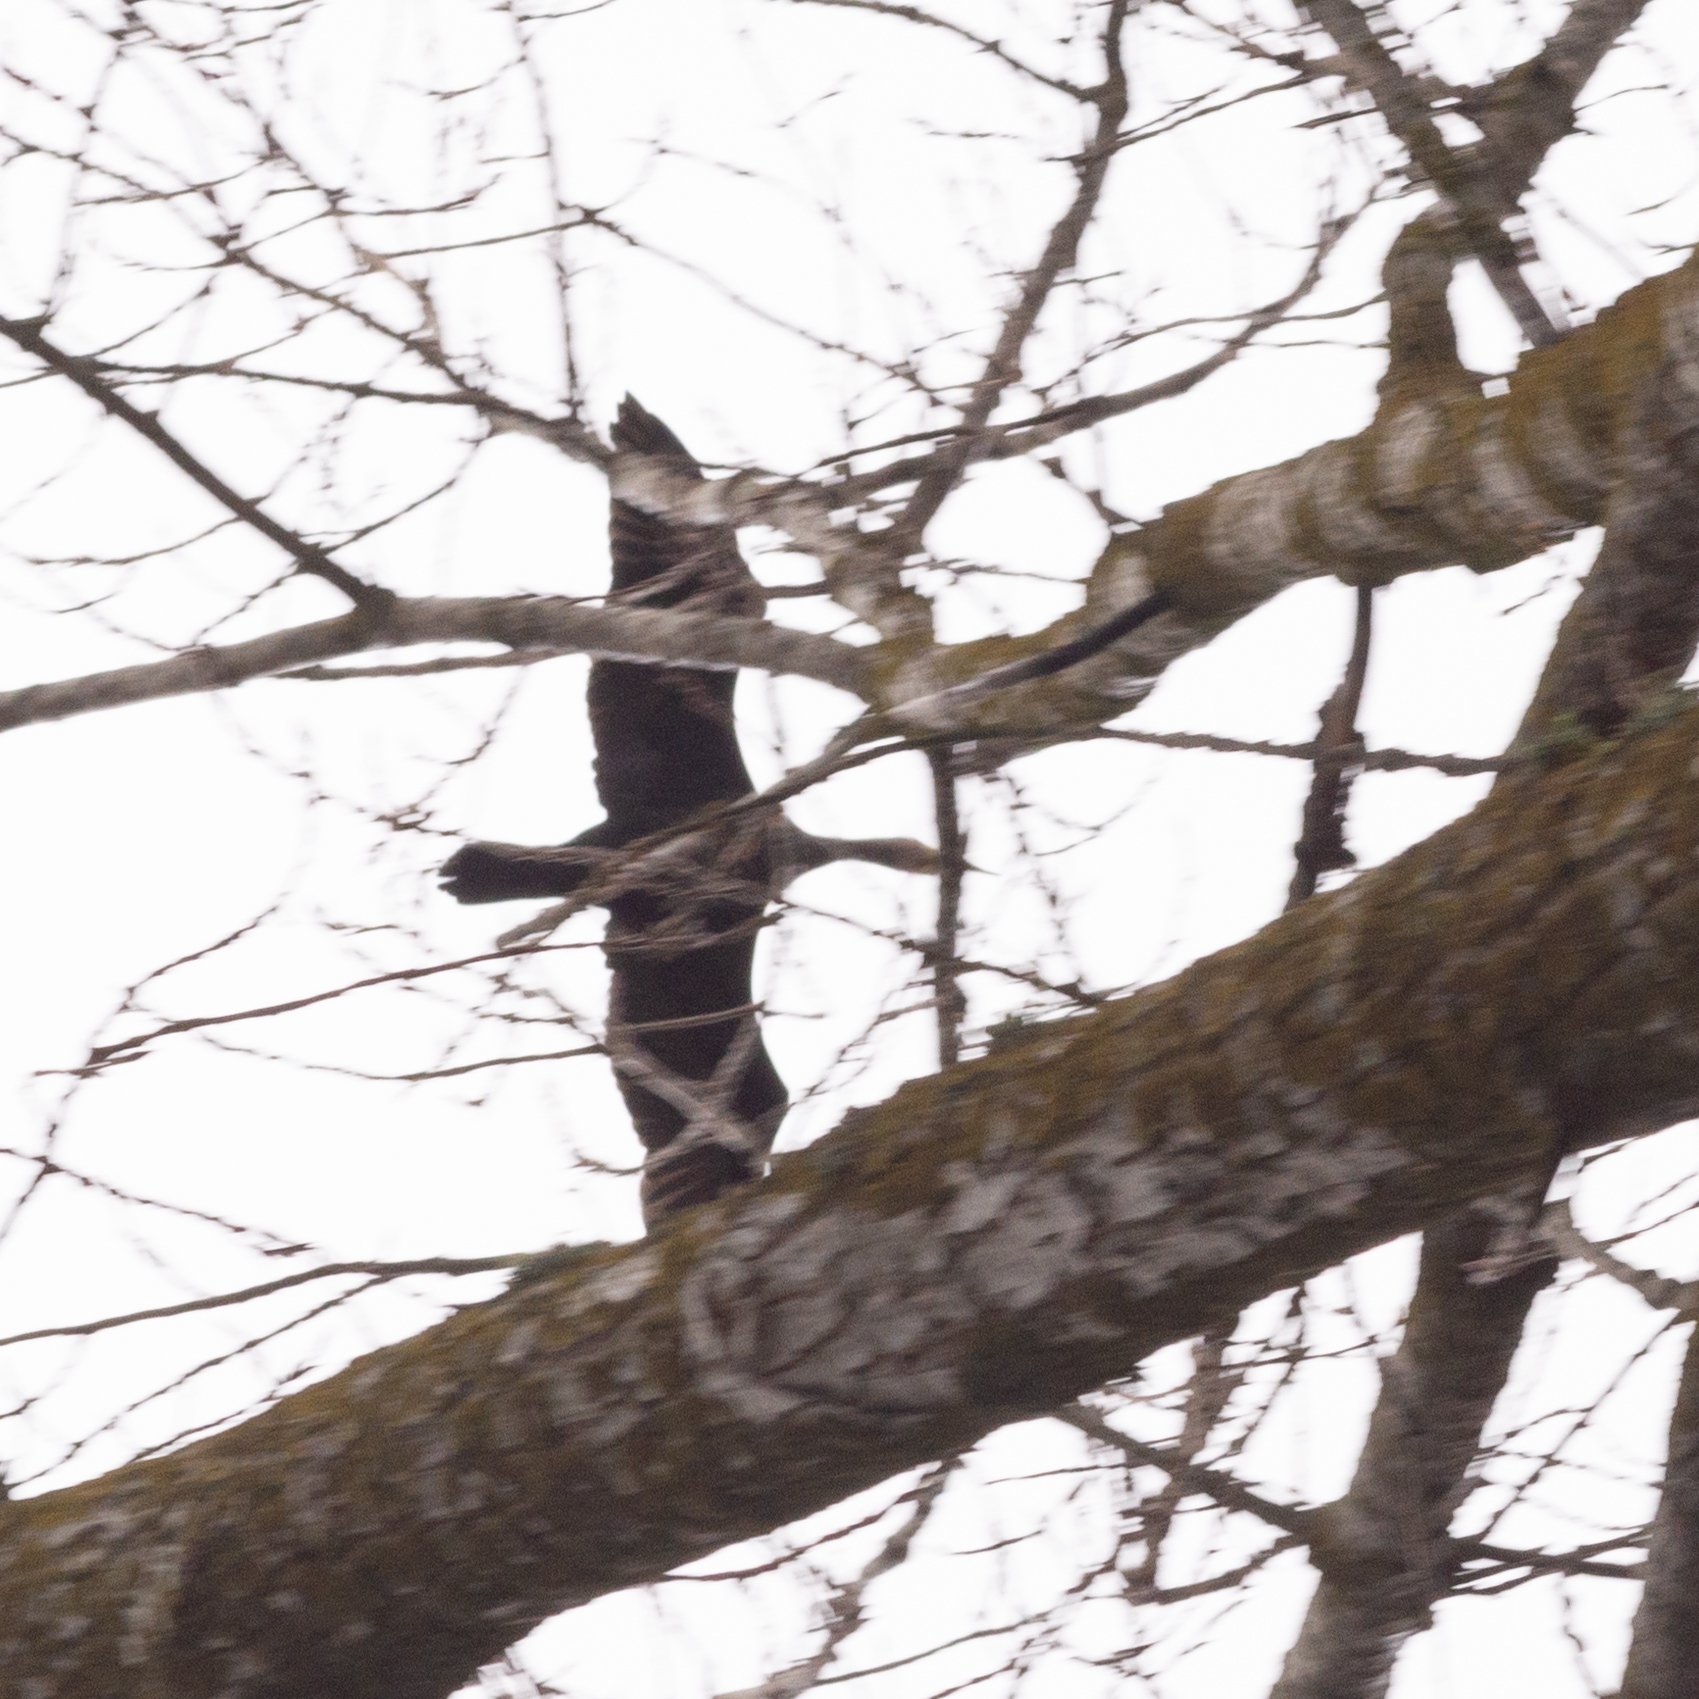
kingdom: Animalia
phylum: Chordata
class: Aves
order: Suliformes
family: Phalacrocoracidae
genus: Phalacrocorax
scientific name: Phalacrocorax carbo
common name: Great cormorant
